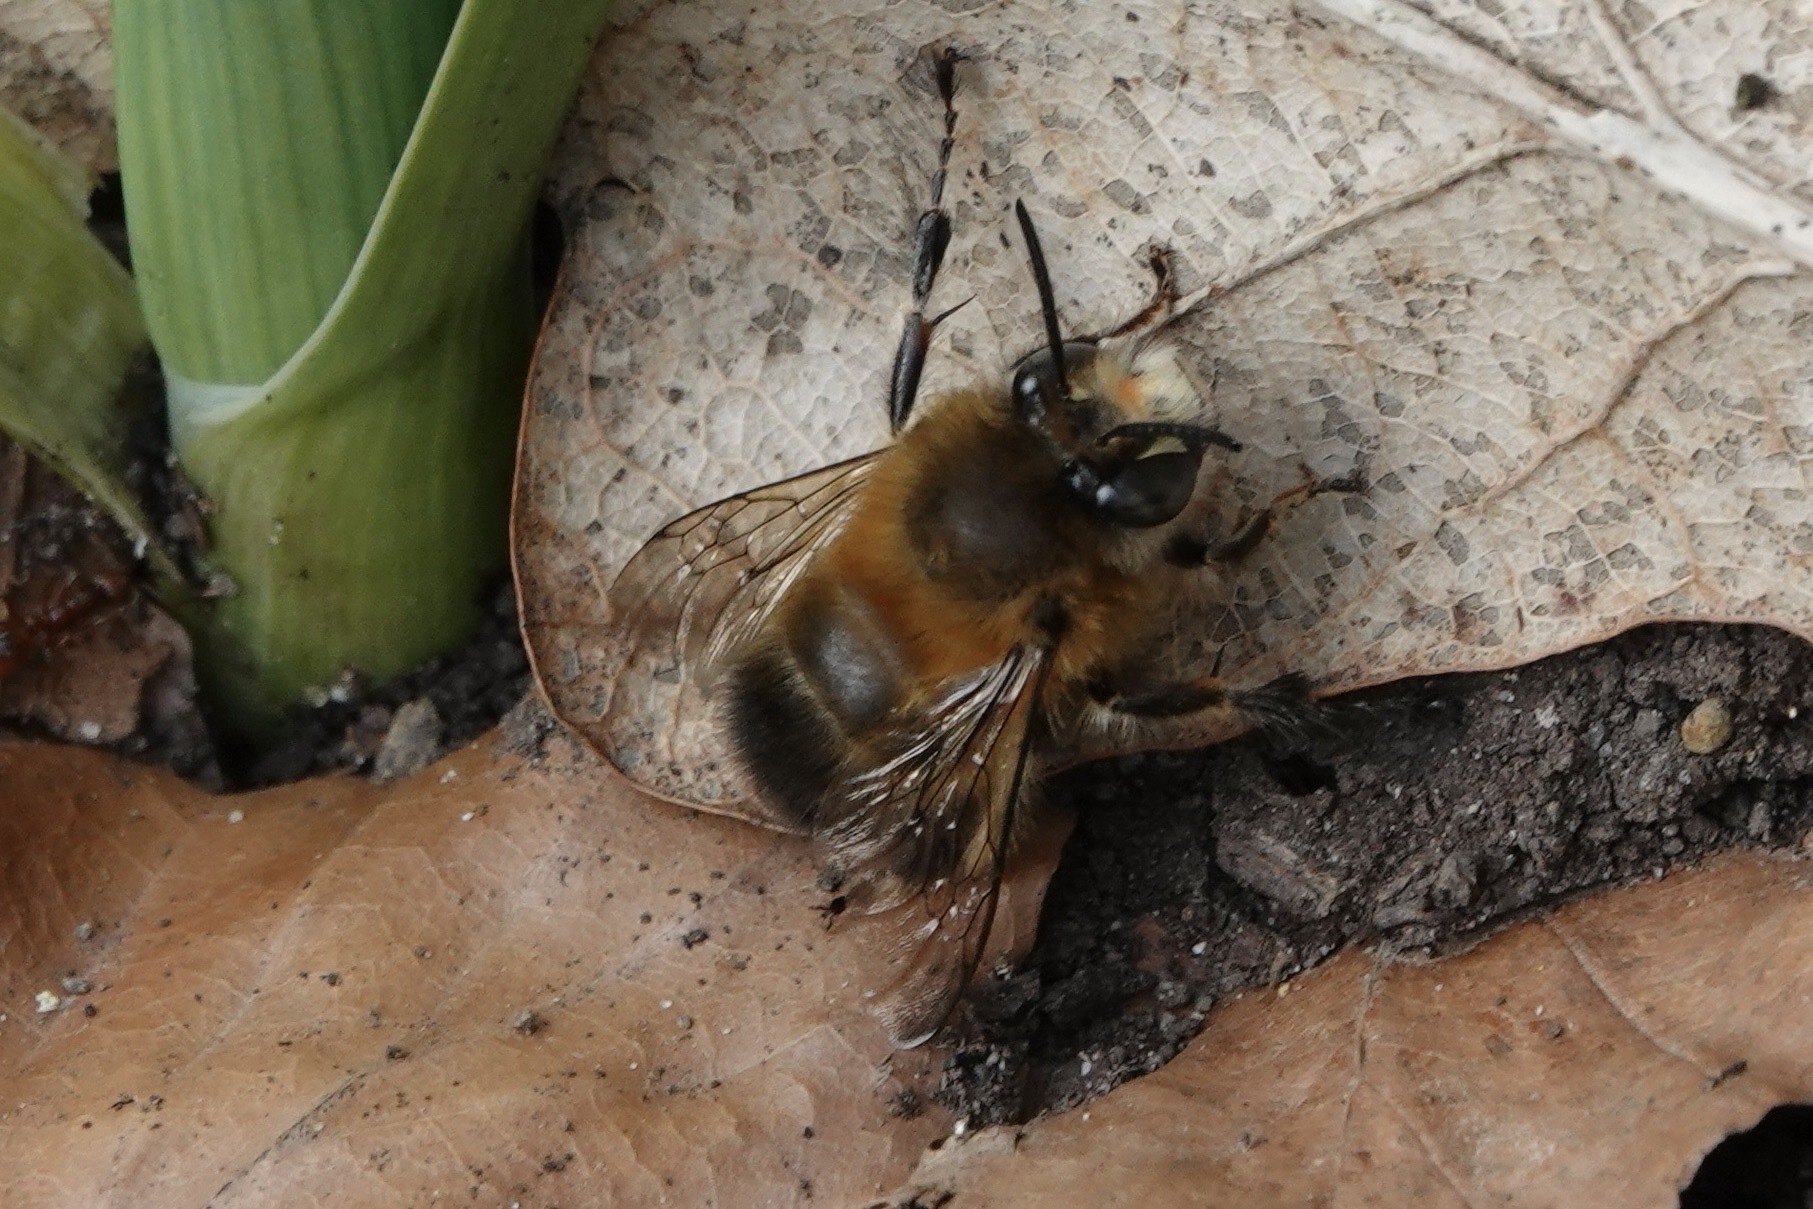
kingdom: Animalia
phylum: Arthropoda
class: Insecta
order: Hymenoptera
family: Apidae
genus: Anthophora
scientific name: Anthophora plumipes
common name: Hairy-footed flower bee
